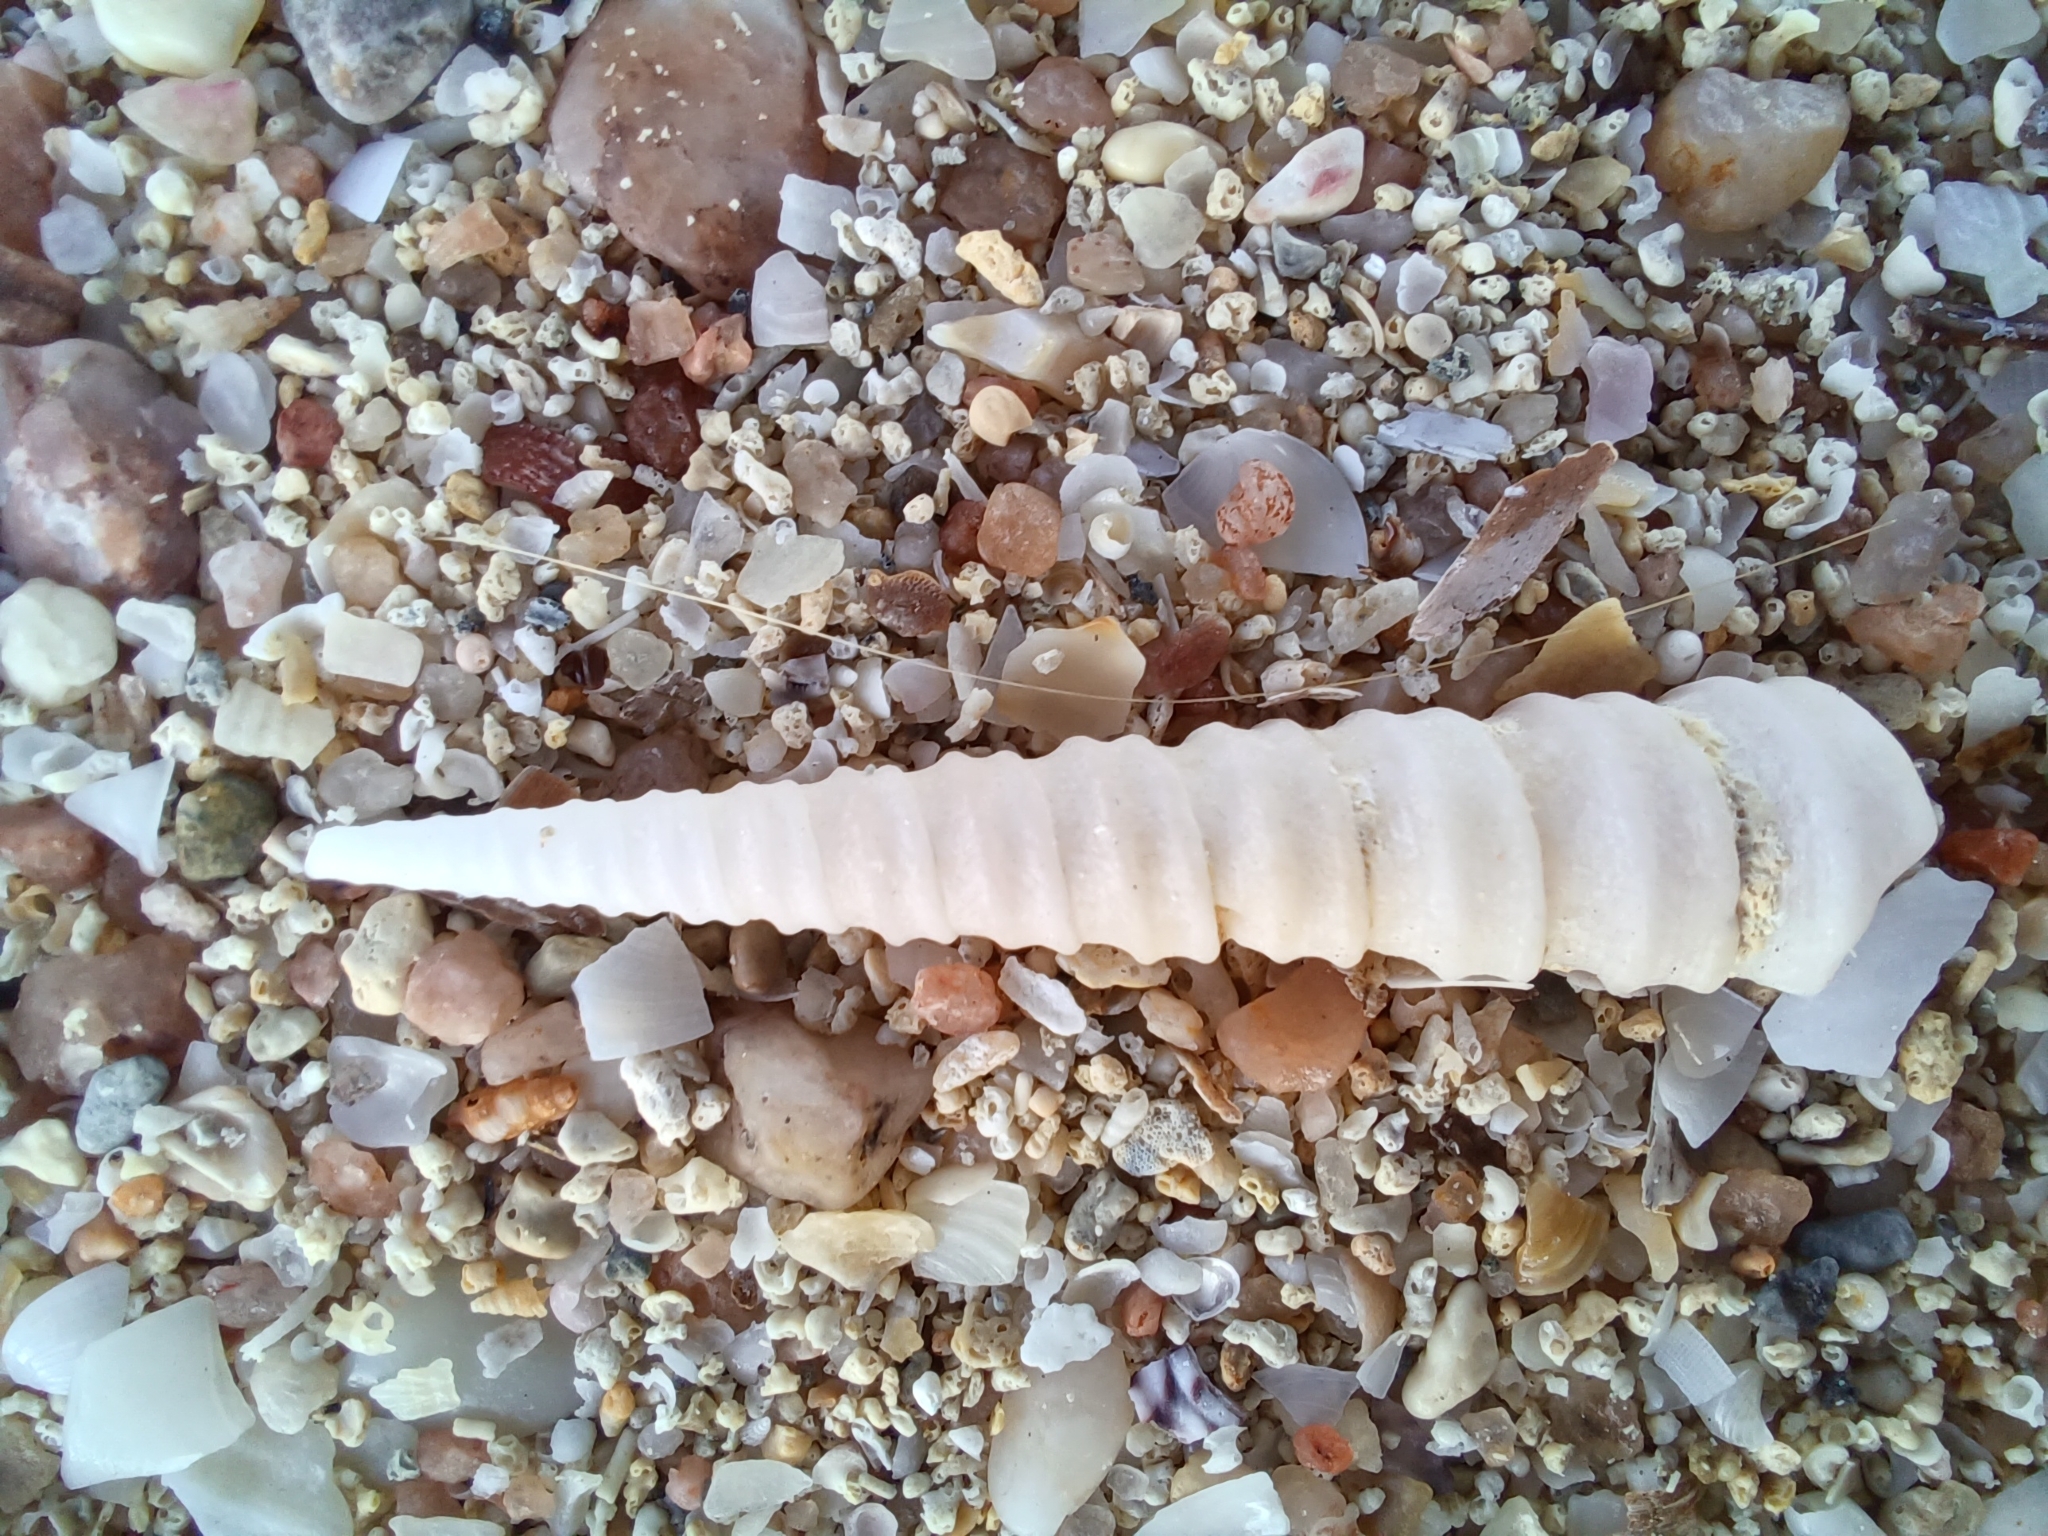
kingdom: Animalia
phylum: Mollusca
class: Gastropoda
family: Turritellidae
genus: Gazameda
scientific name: Gazameda iredalei
